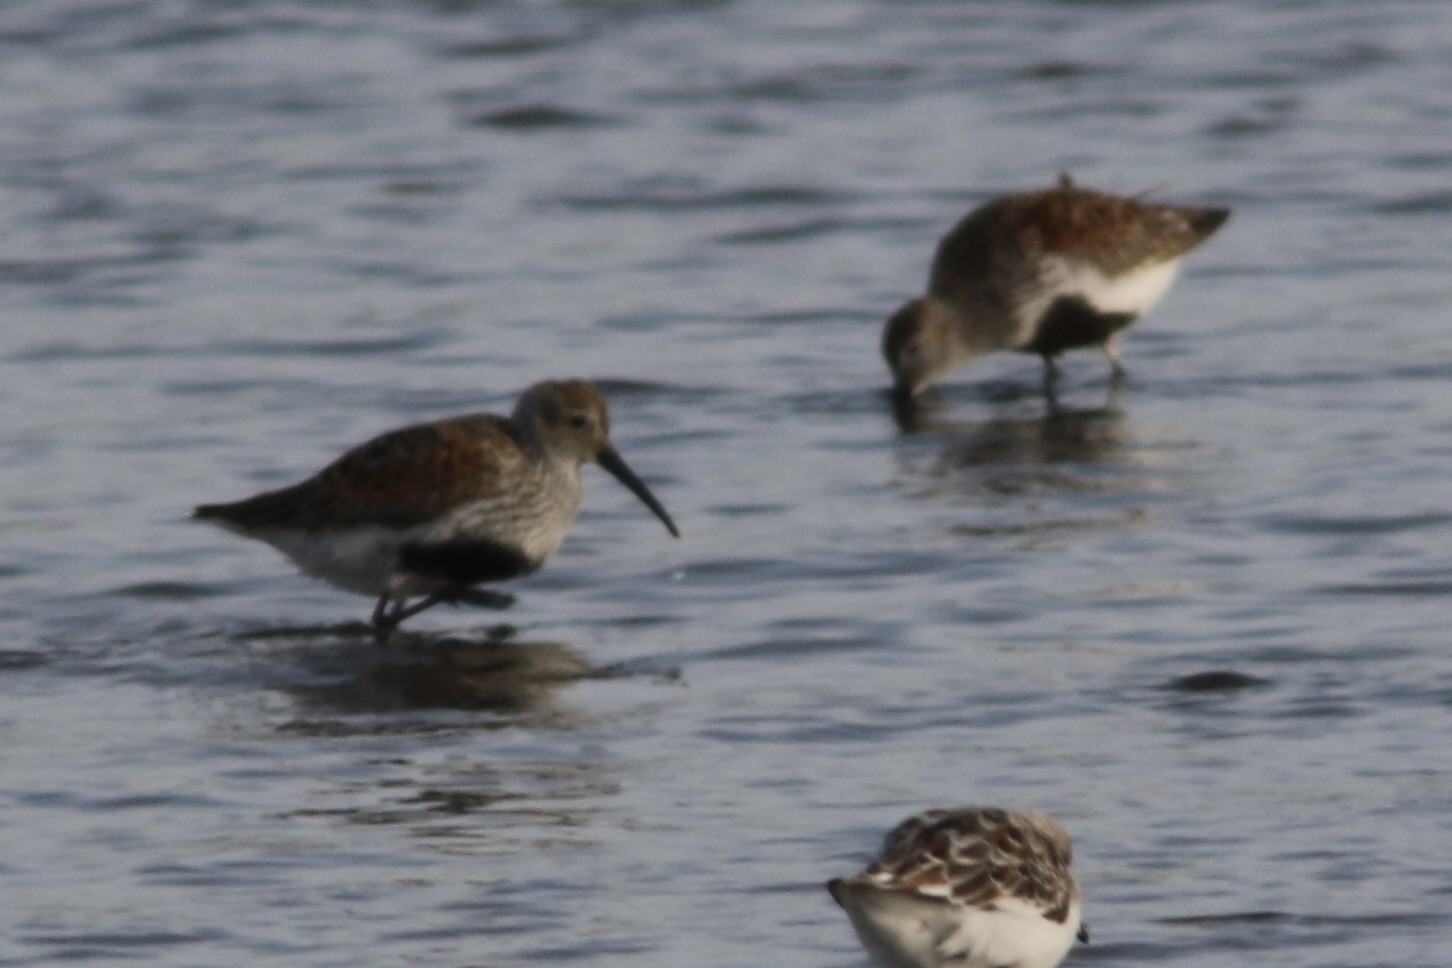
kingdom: Animalia
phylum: Chordata
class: Aves
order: Charadriiformes
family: Scolopacidae
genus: Calidris
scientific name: Calidris alpina
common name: Dunlin
